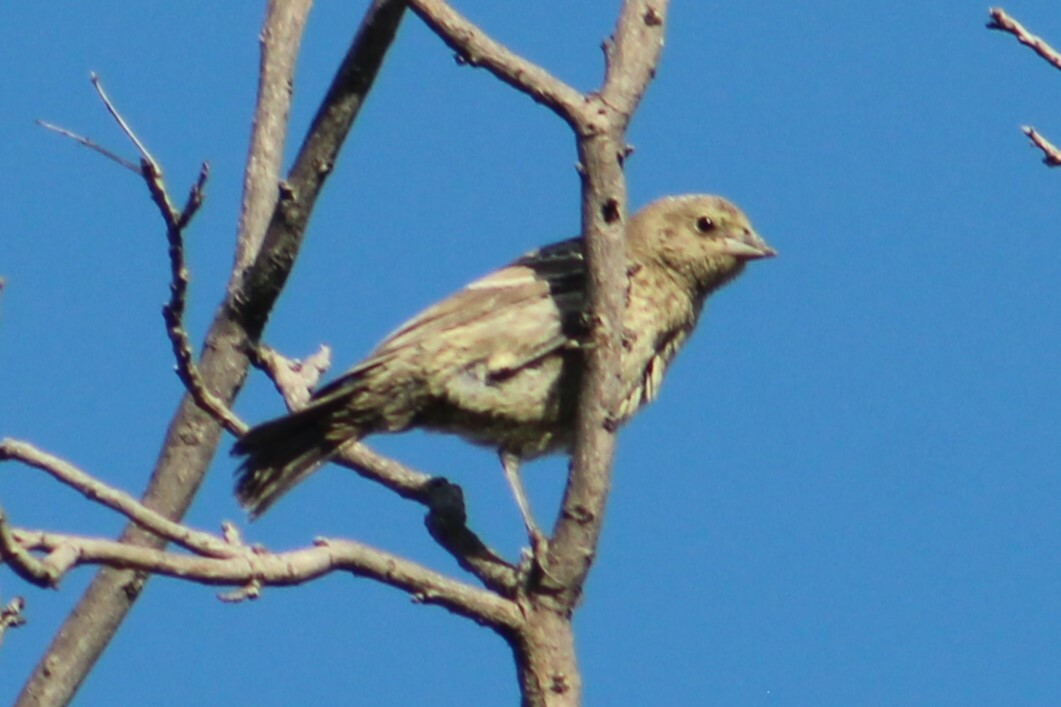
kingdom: Animalia
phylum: Chordata
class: Aves
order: Passeriformes
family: Icteridae
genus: Molothrus
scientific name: Molothrus ater
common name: Brown-headed cowbird
